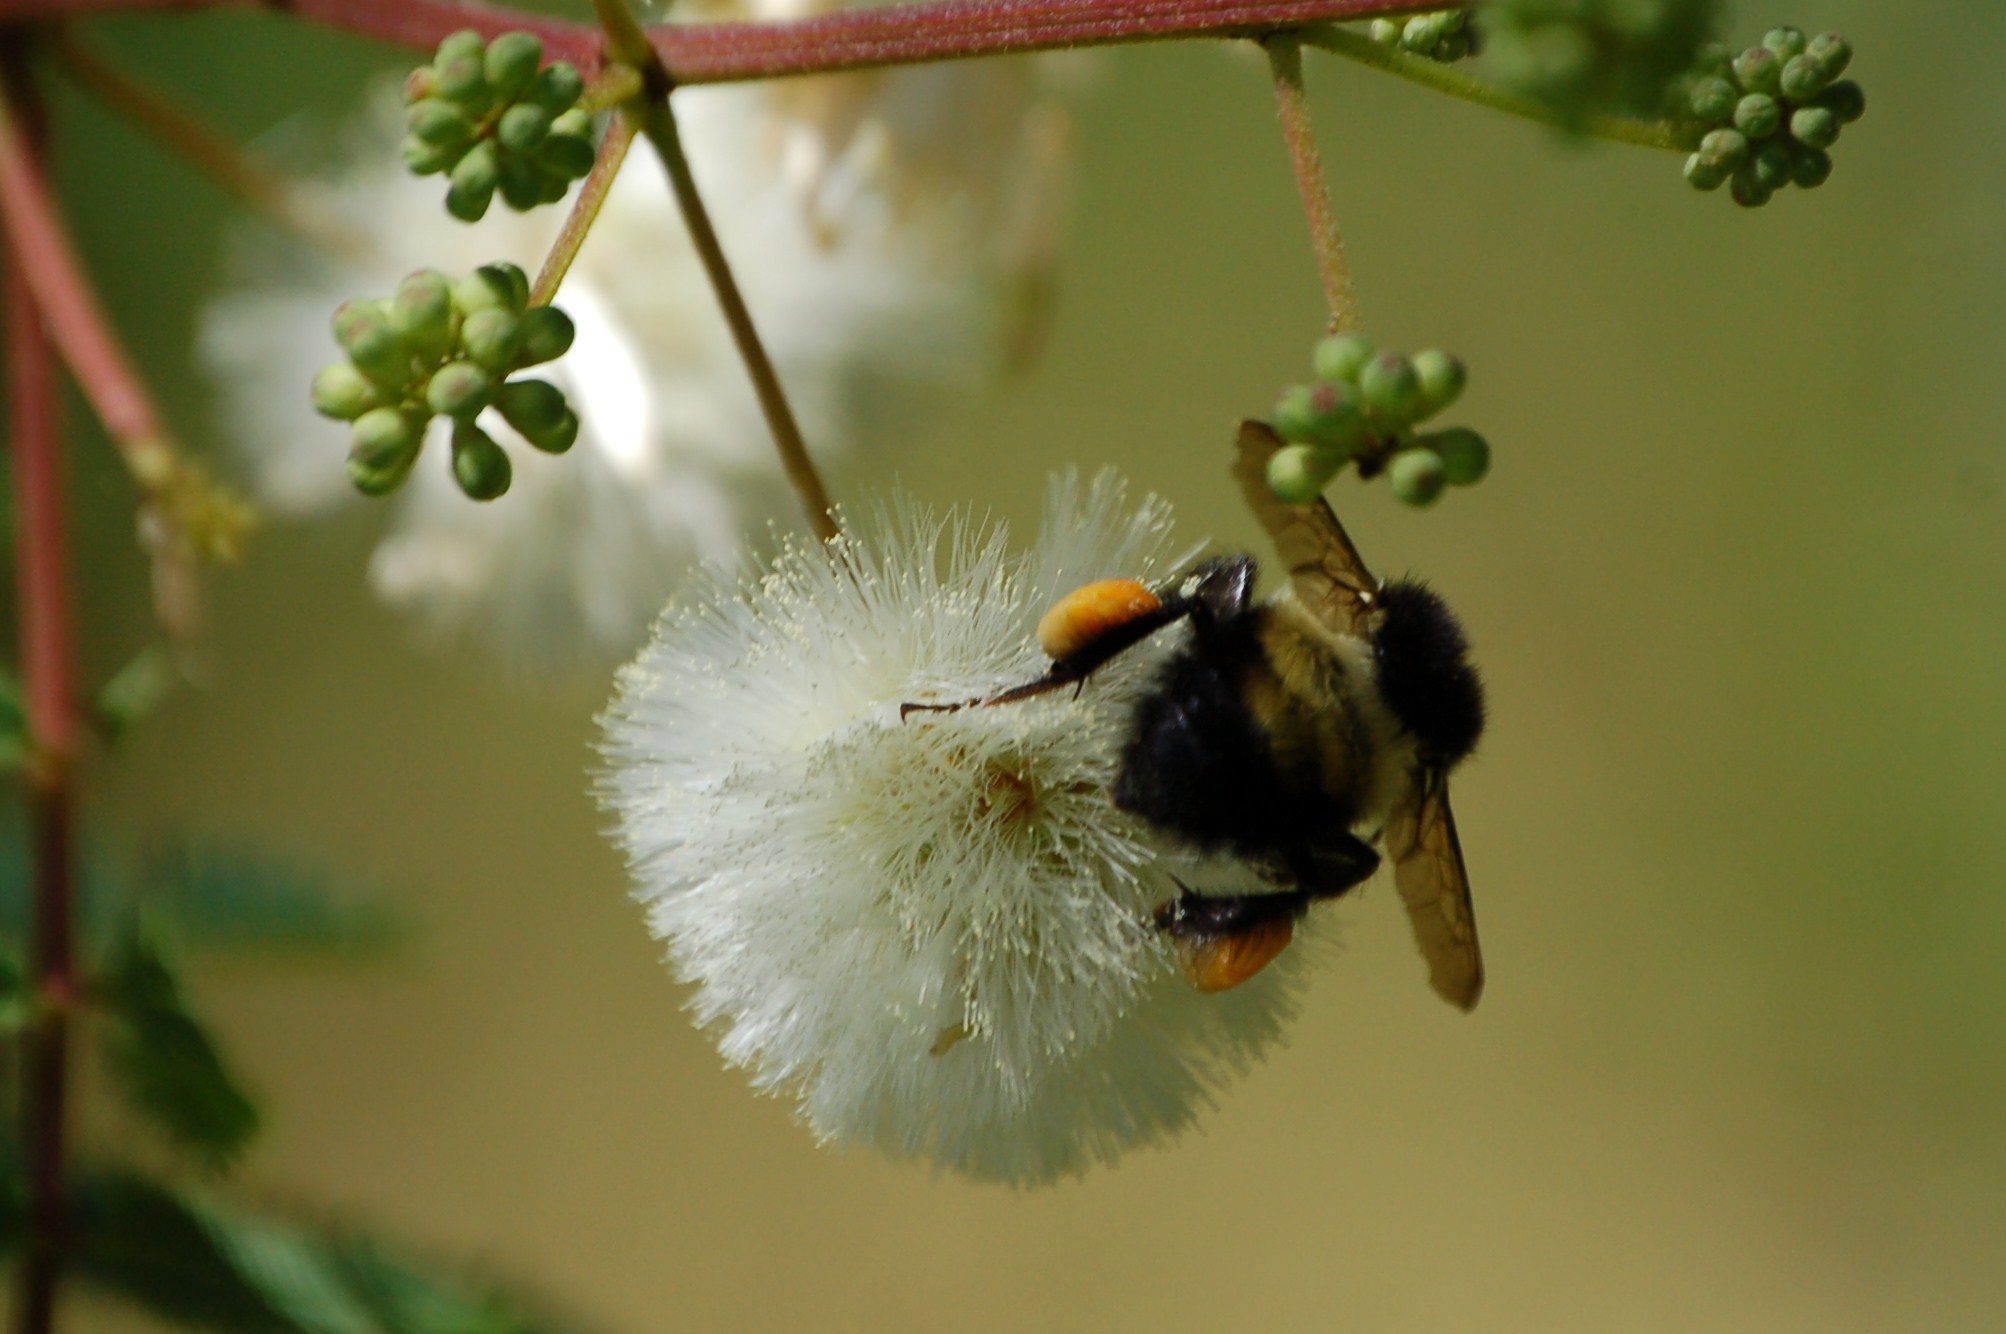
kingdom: Animalia
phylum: Arthropoda
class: Insecta
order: Hymenoptera
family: Apidae
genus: Bombus
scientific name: Bombus ephippiatus
